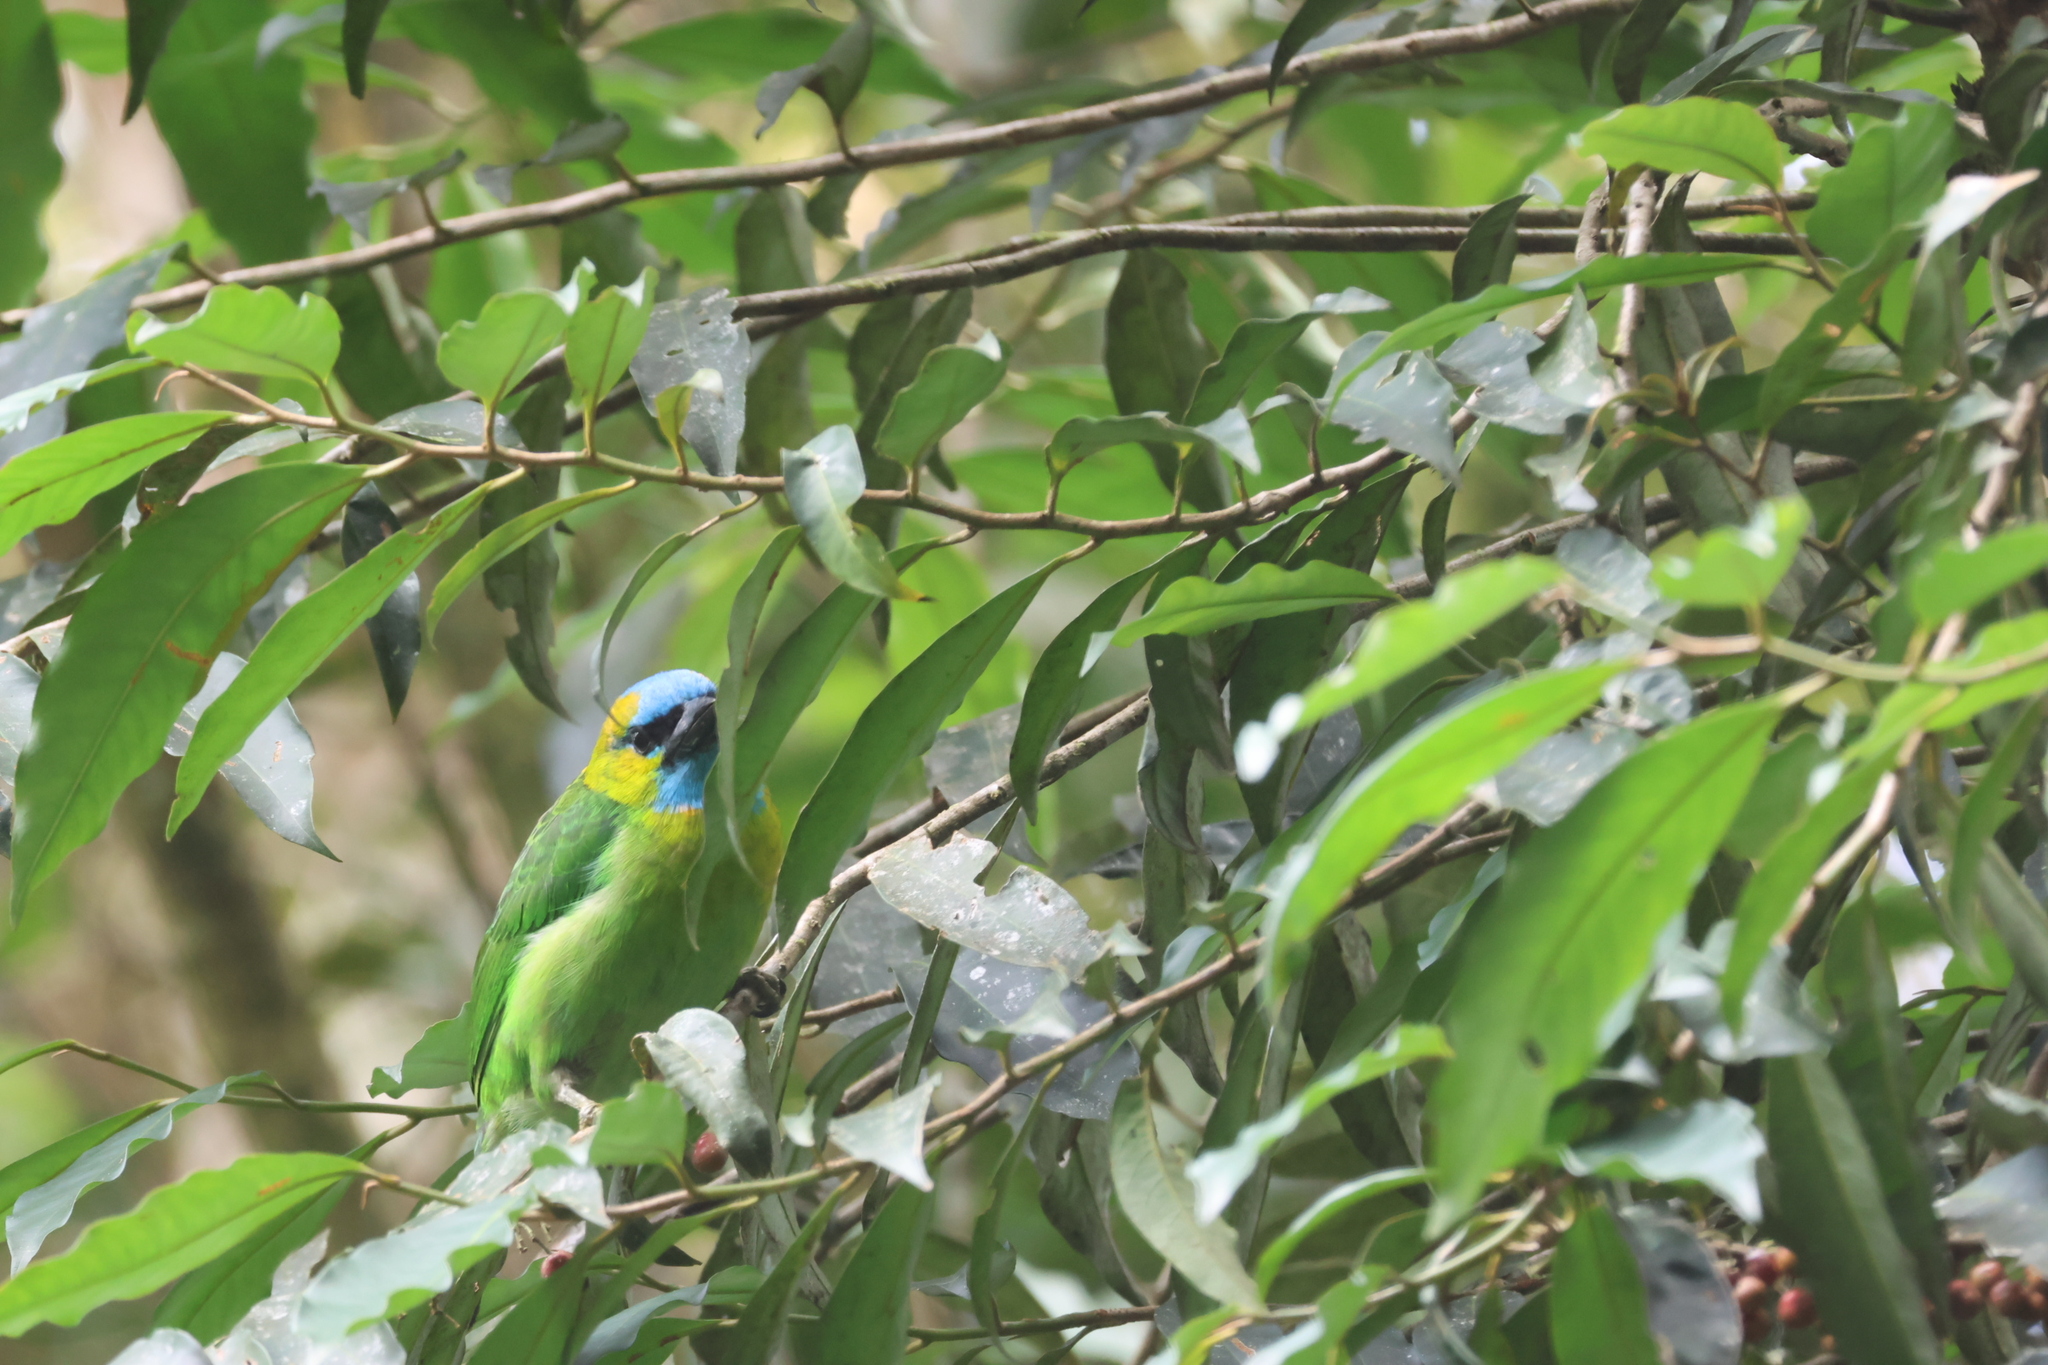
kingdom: Animalia
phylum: Chordata
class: Aves
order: Piciformes
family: Megalaimidae
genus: Psilopogon
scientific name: Psilopogon pulcherrimus
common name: Golden-naped barbet
